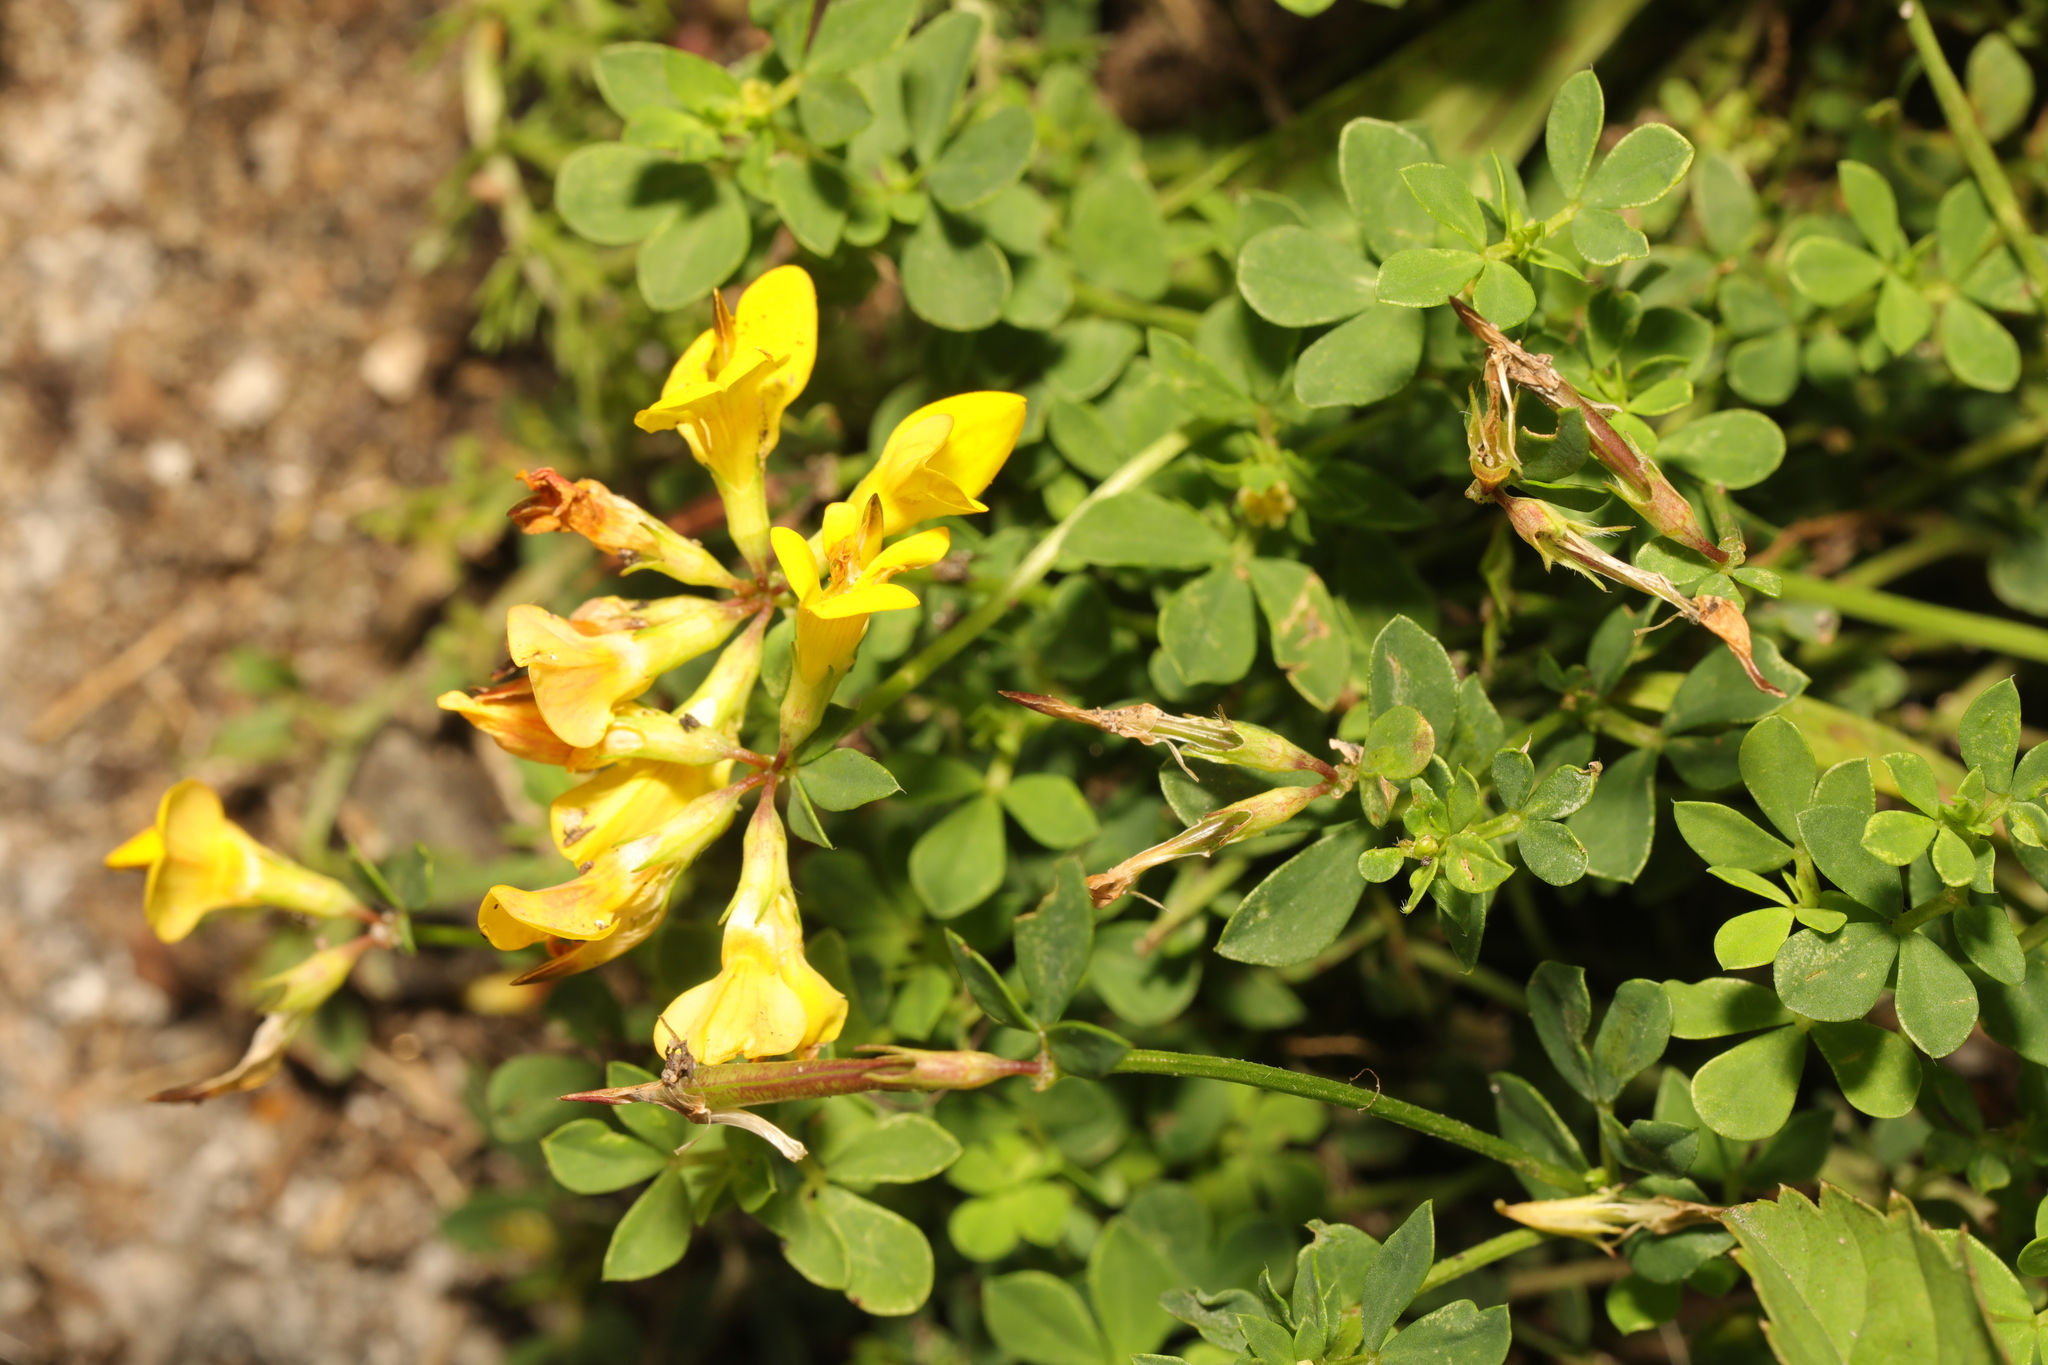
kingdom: Plantae
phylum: Tracheophyta
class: Magnoliopsida
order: Fabales
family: Fabaceae
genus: Lotus
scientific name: Lotus corniculatus
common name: Common bird's-foot-trefoil
